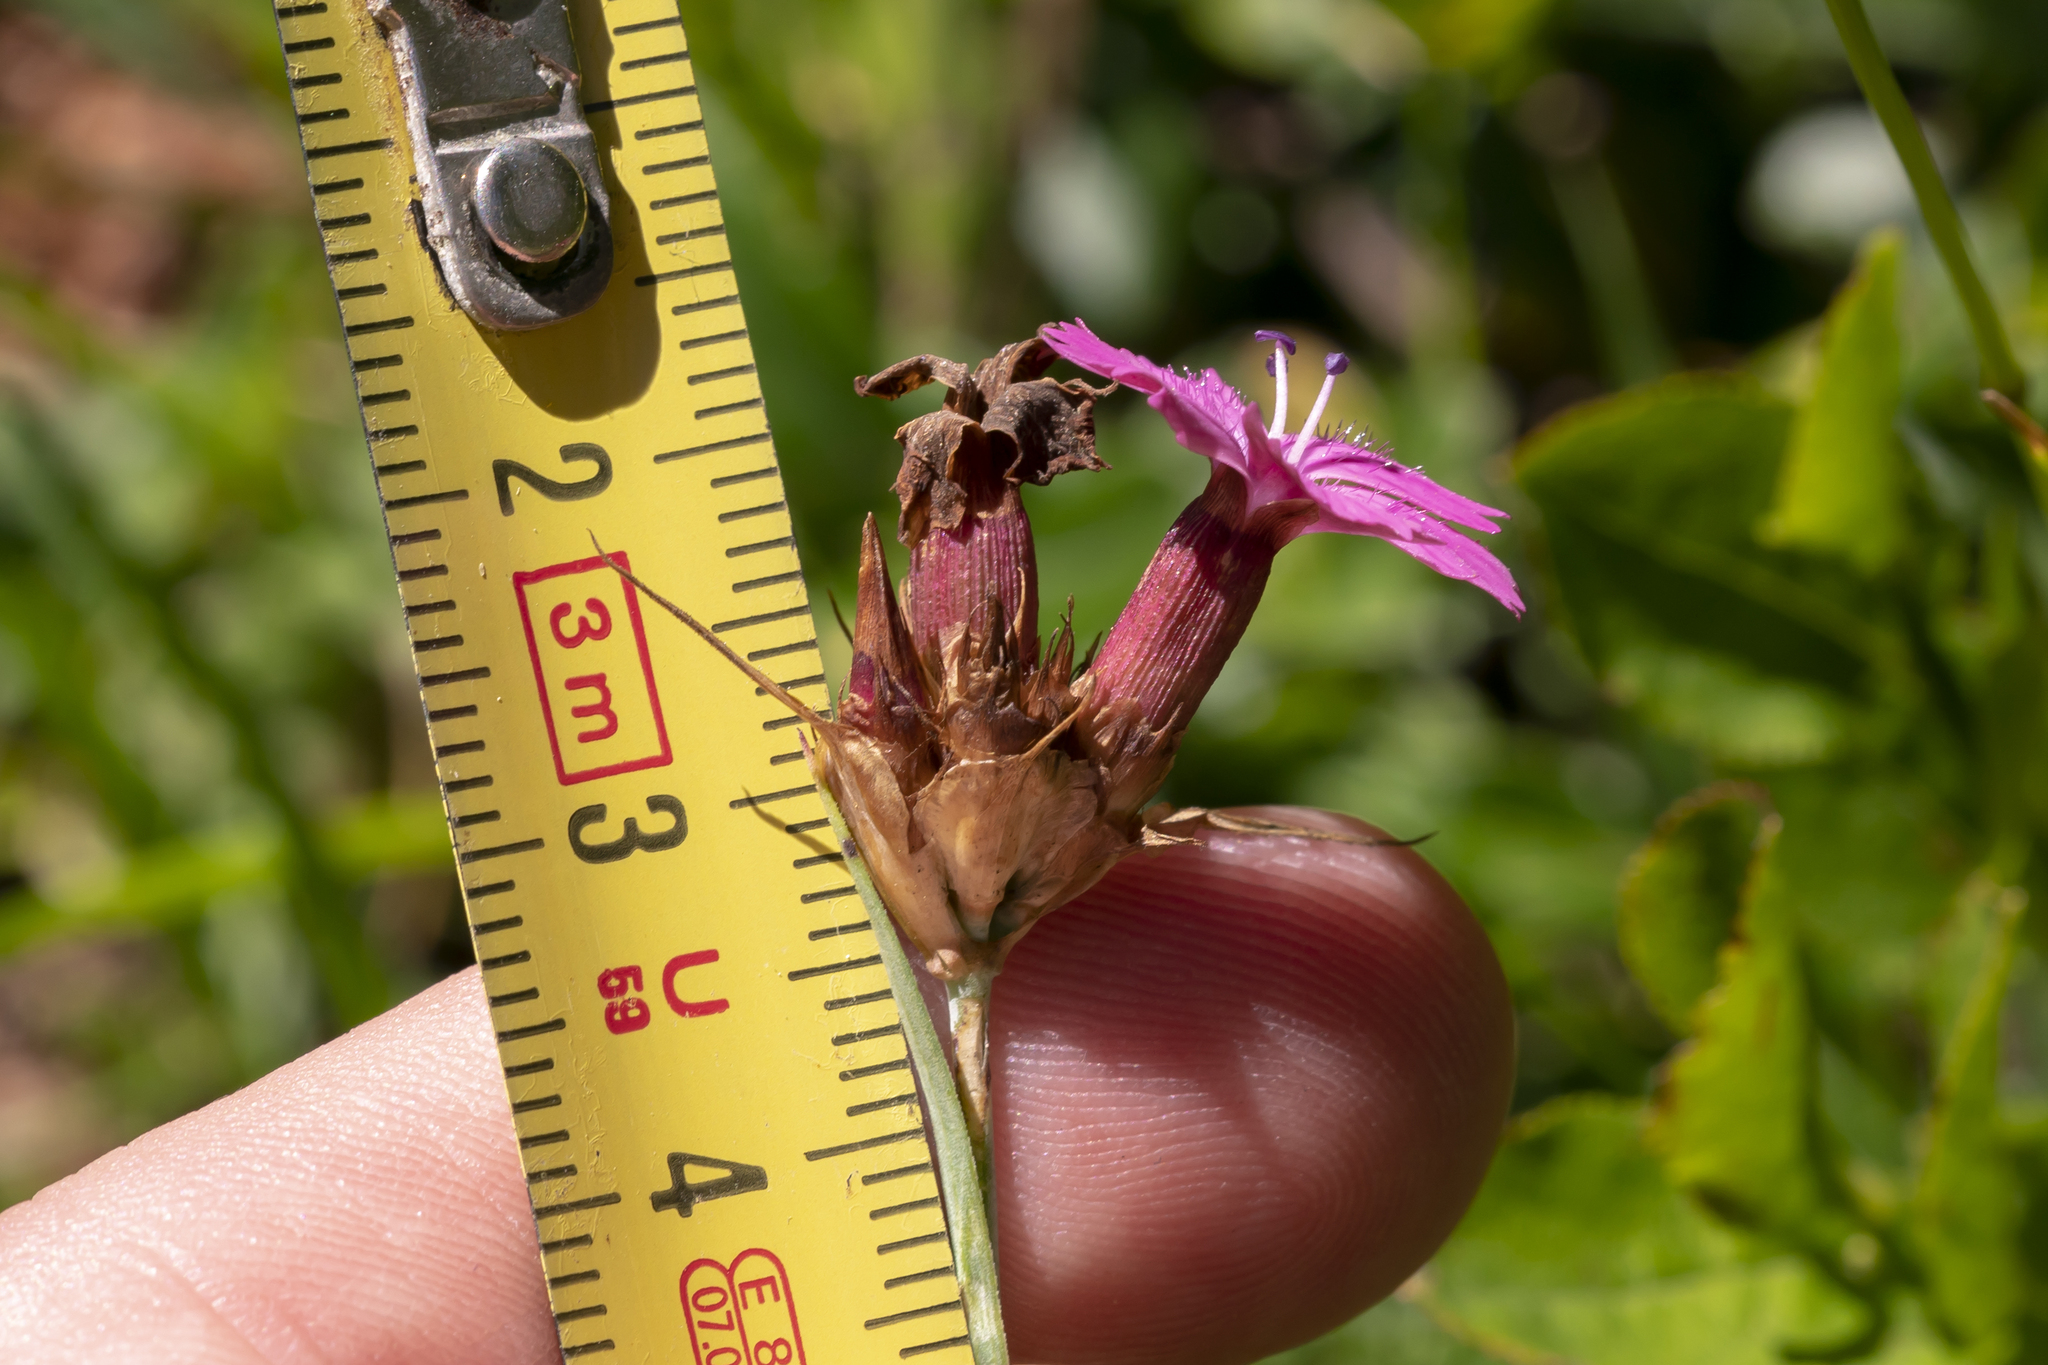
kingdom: Plantae
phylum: Tracheophyta
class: Magnoliopsida
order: Caryophyllales
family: Caryophyllaceae
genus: Dianthus
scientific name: Dianthus carthusianorum
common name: Carthusian pink
